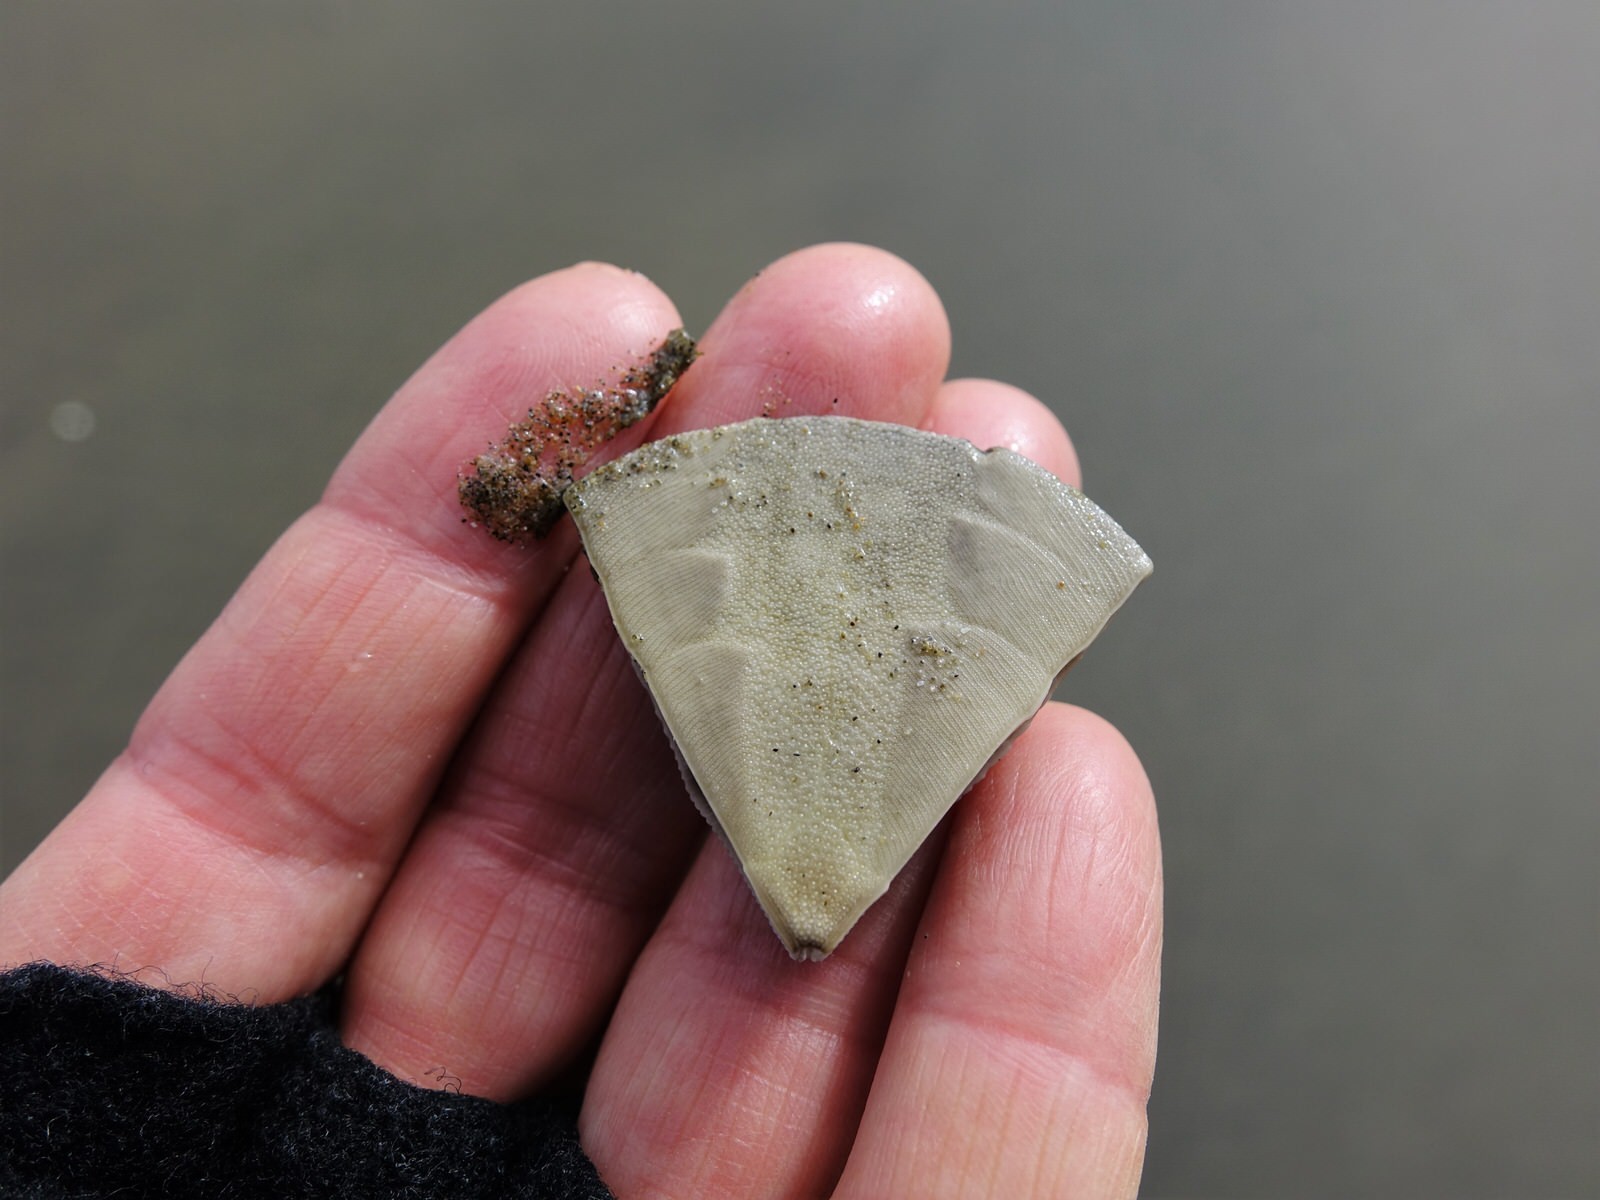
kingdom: Animalia
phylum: Echinodermata
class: Echinoidea
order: Clypeasteroida
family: Clypeasteridae
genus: Fellaster
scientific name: Fellaster zelandiae
